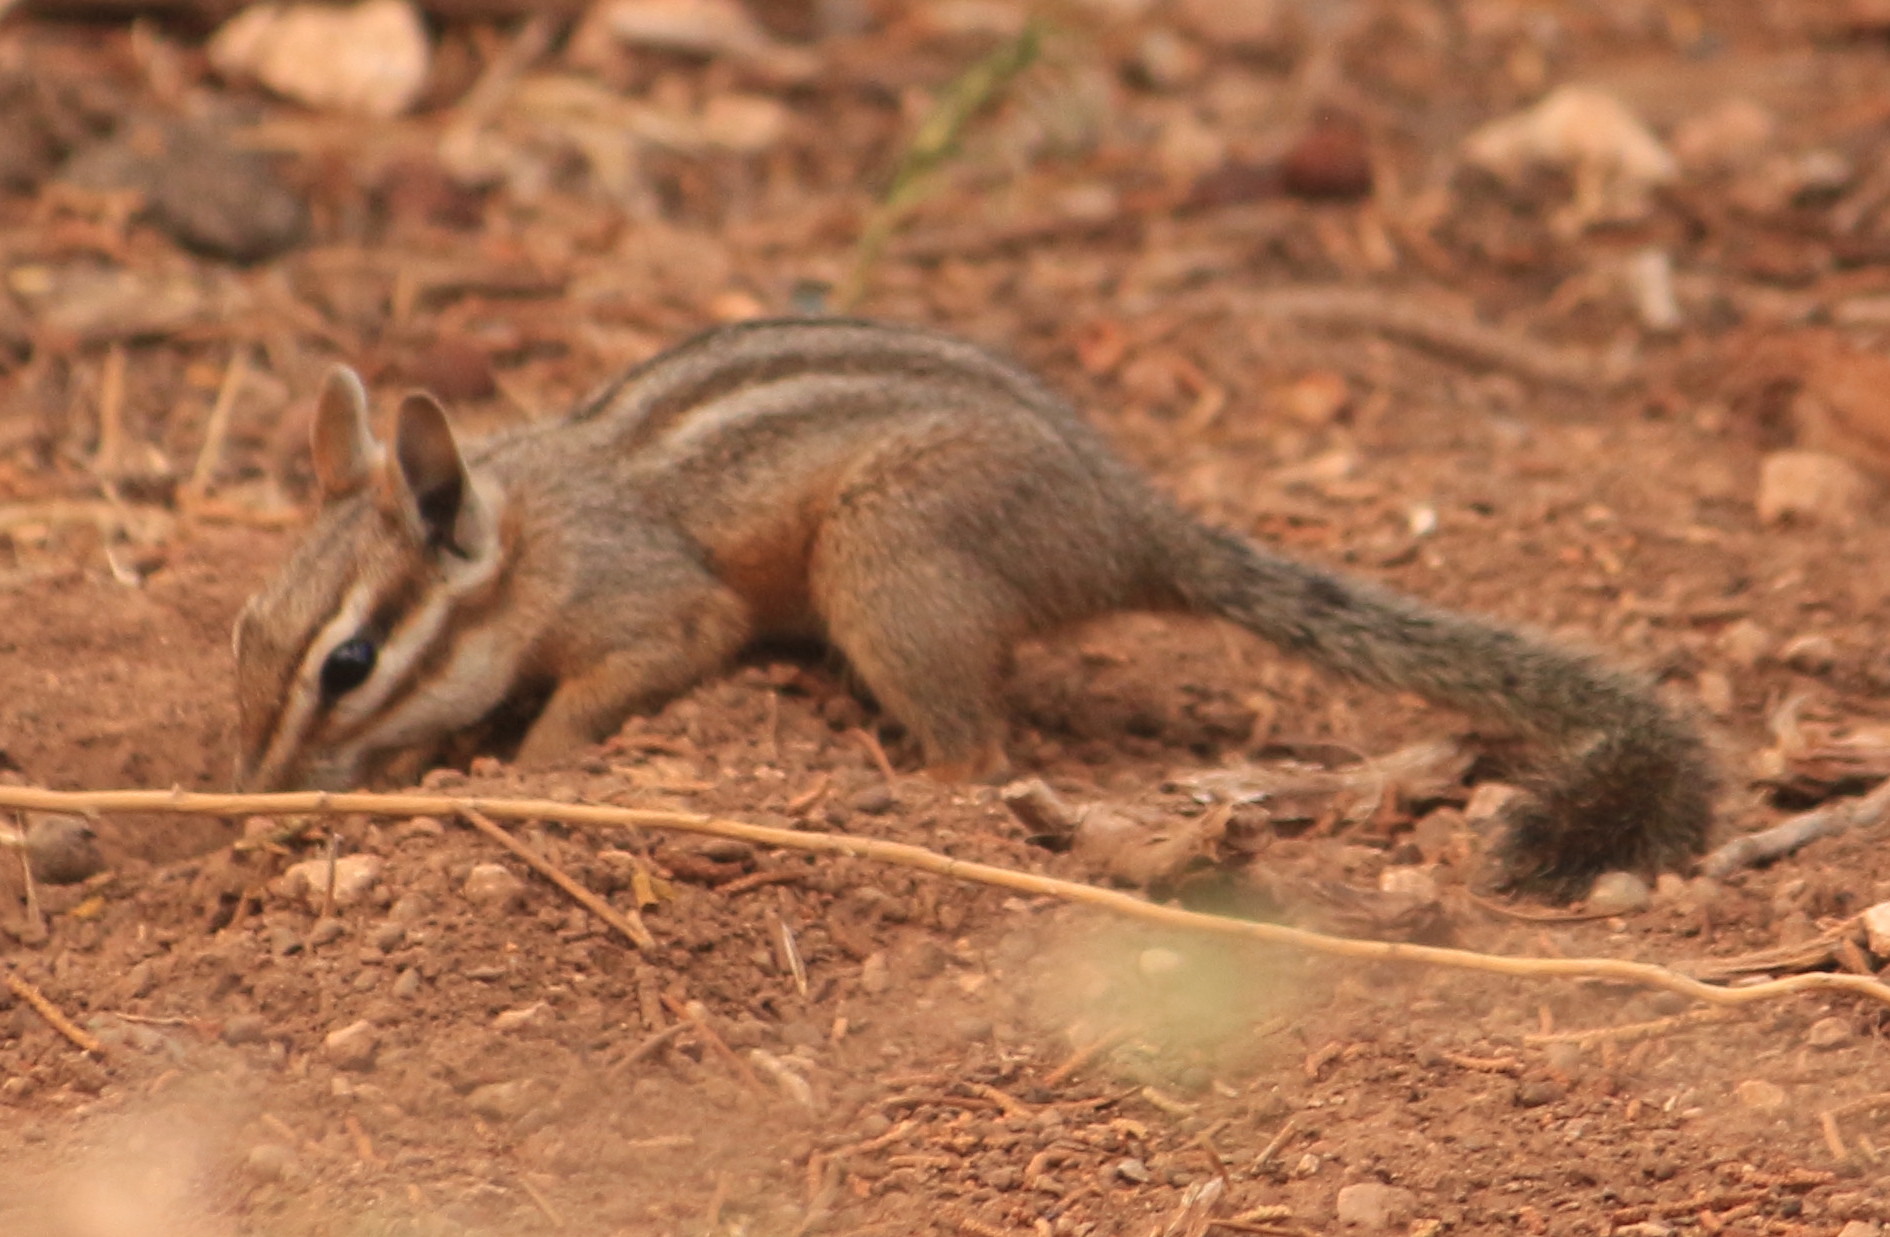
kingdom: Animalia
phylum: Chordata
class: Mammalia
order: Rodentia
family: Sciuridae
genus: Tamias
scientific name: Tamias dorsalis
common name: Cliff chipmunk
